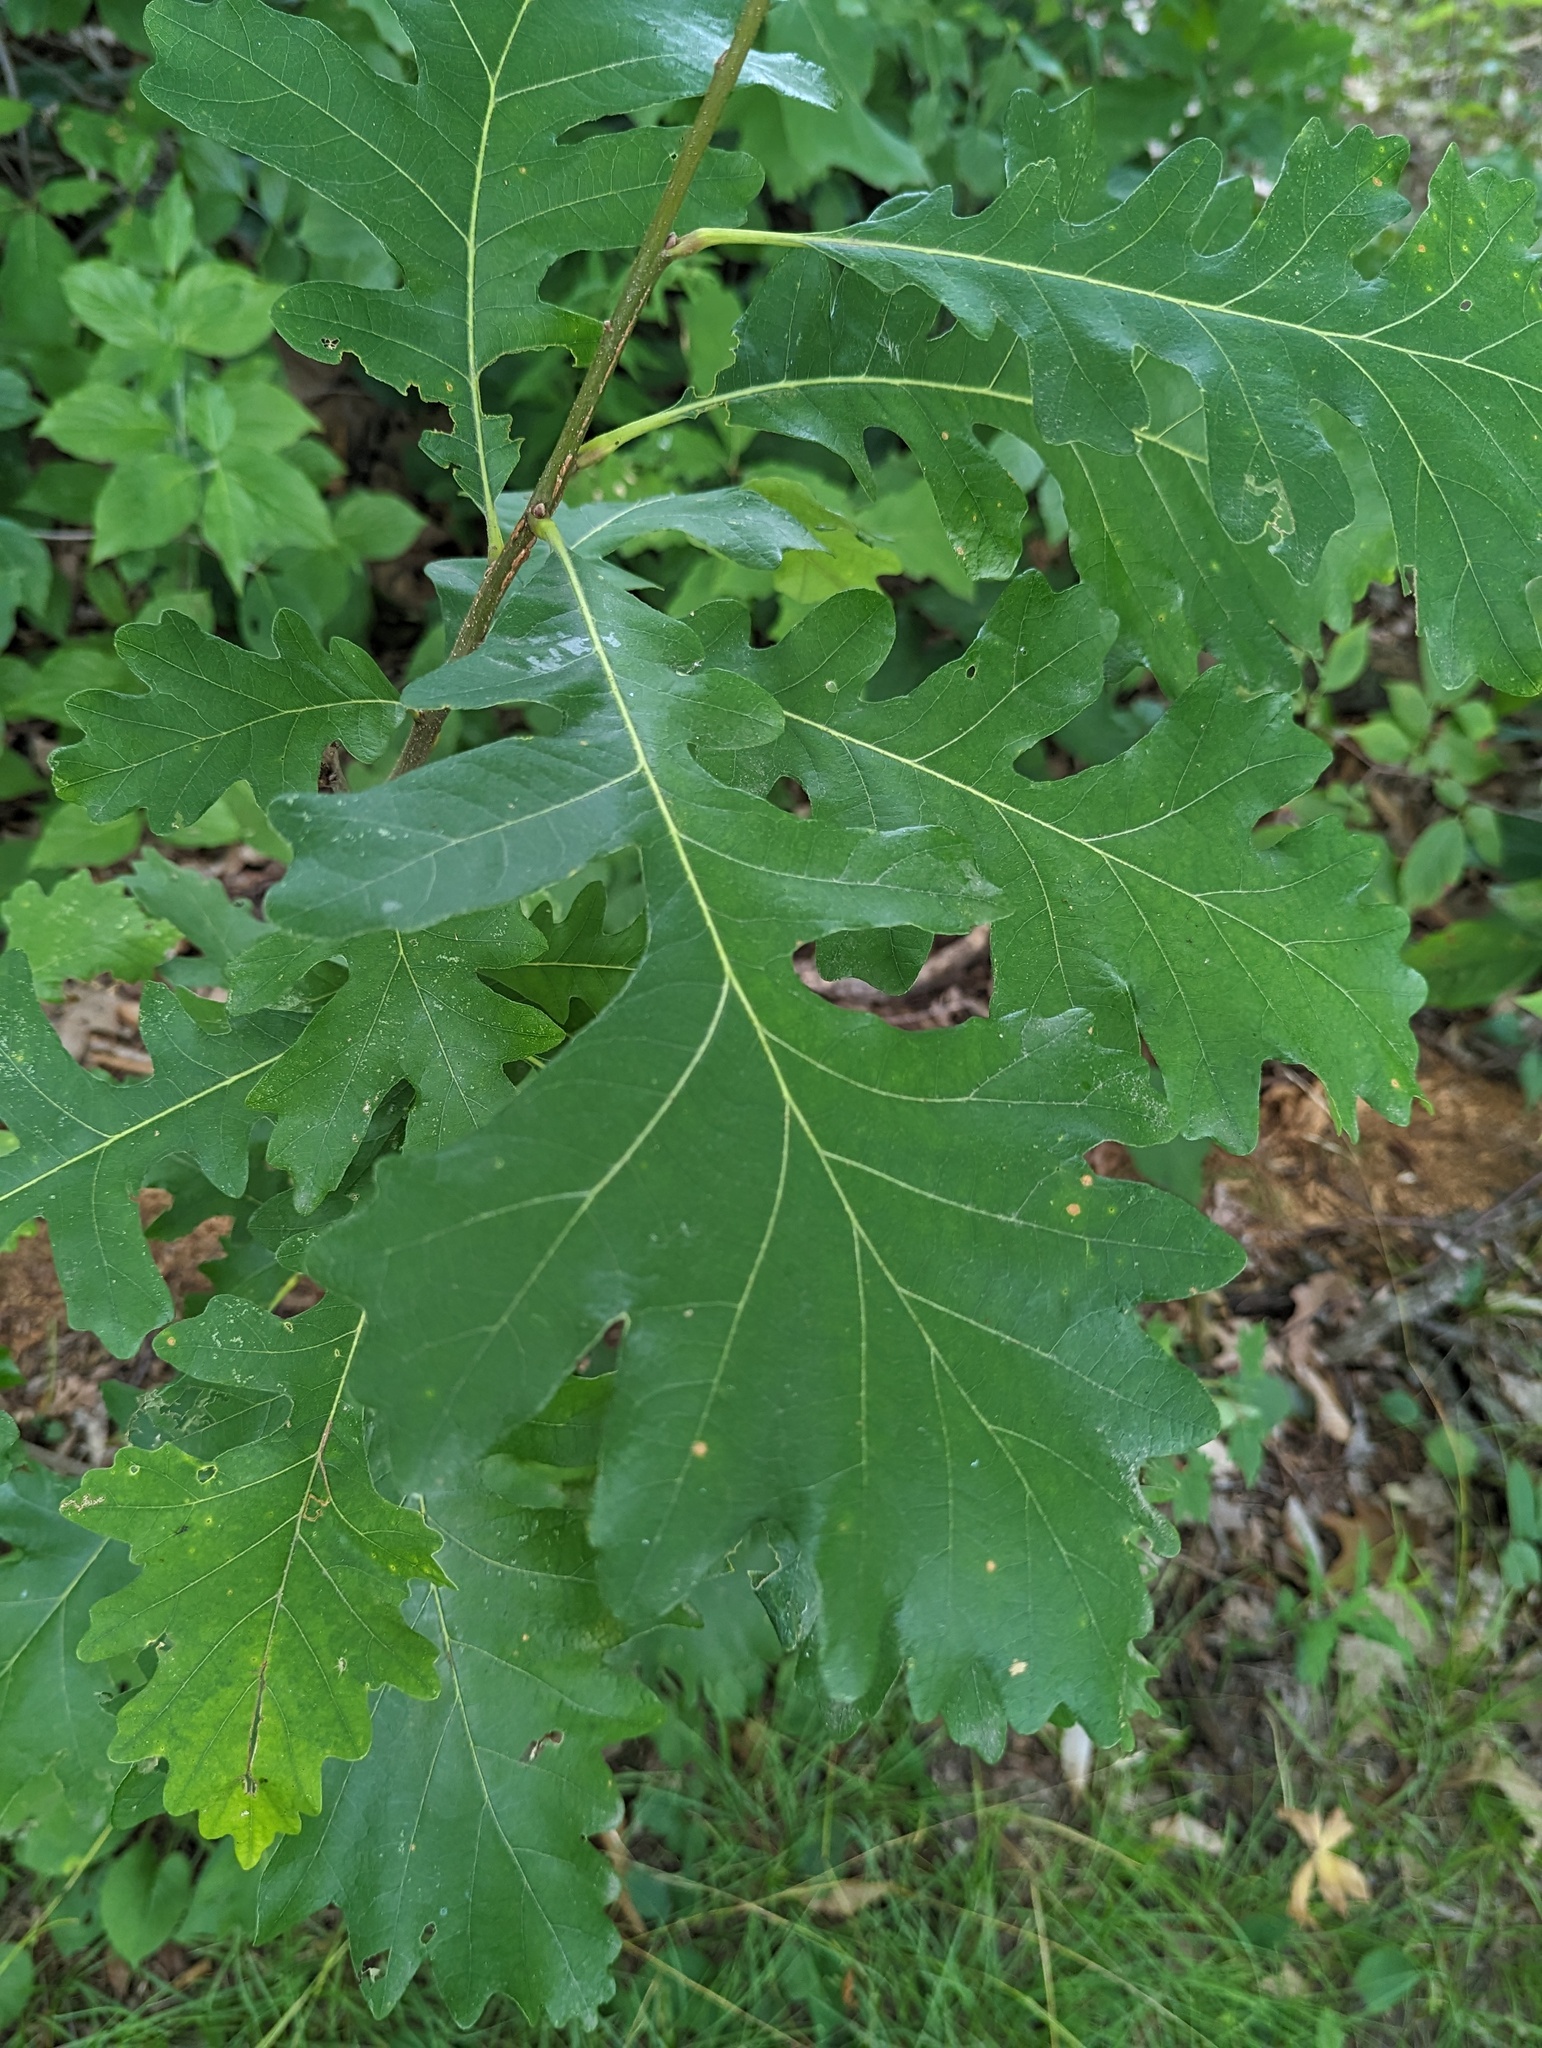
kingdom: Plantae
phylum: Tracheophyta
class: Magnoliopsida
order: Fagales
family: Fagaceae
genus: Quercus
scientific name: Quercus macrocarpa
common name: Bur oak
